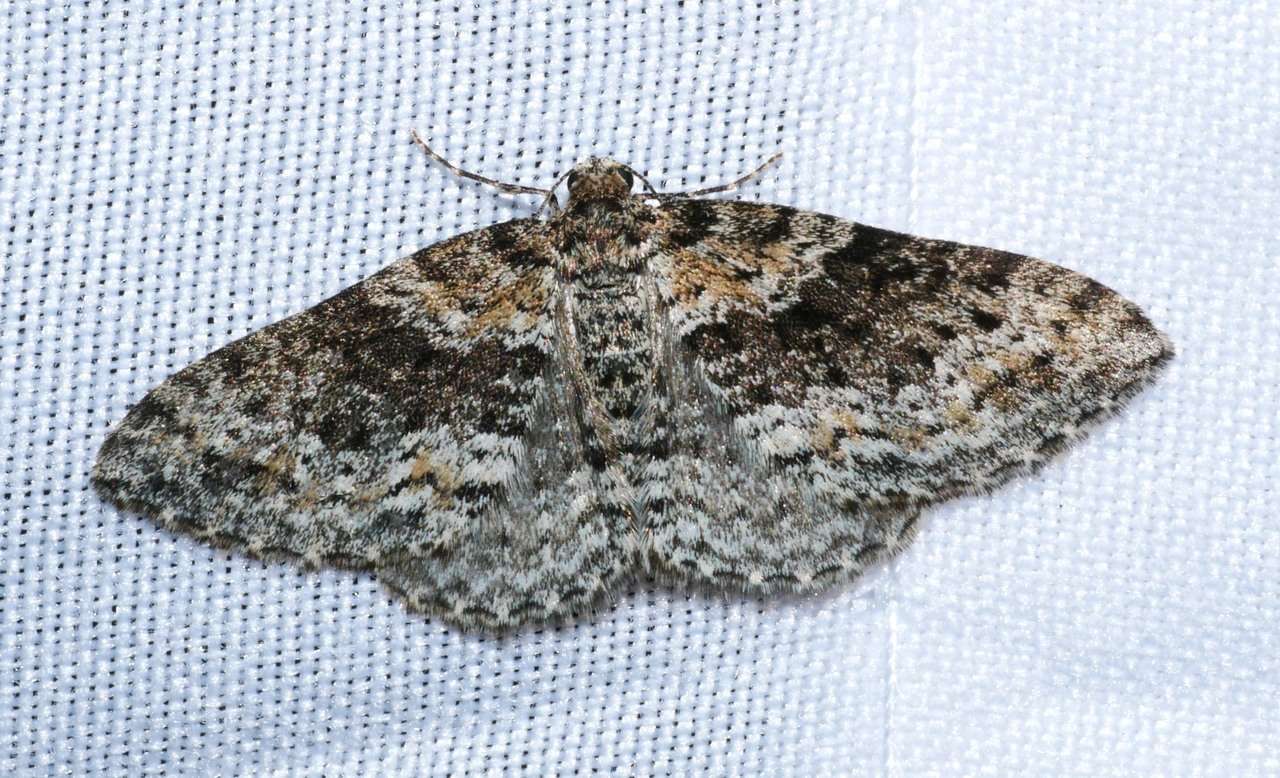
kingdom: Animalia
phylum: Arthropoda
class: Insecta
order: Lepidoptera
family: Geometridae
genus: Aponotoreas
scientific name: Aponotoreas petrodes
